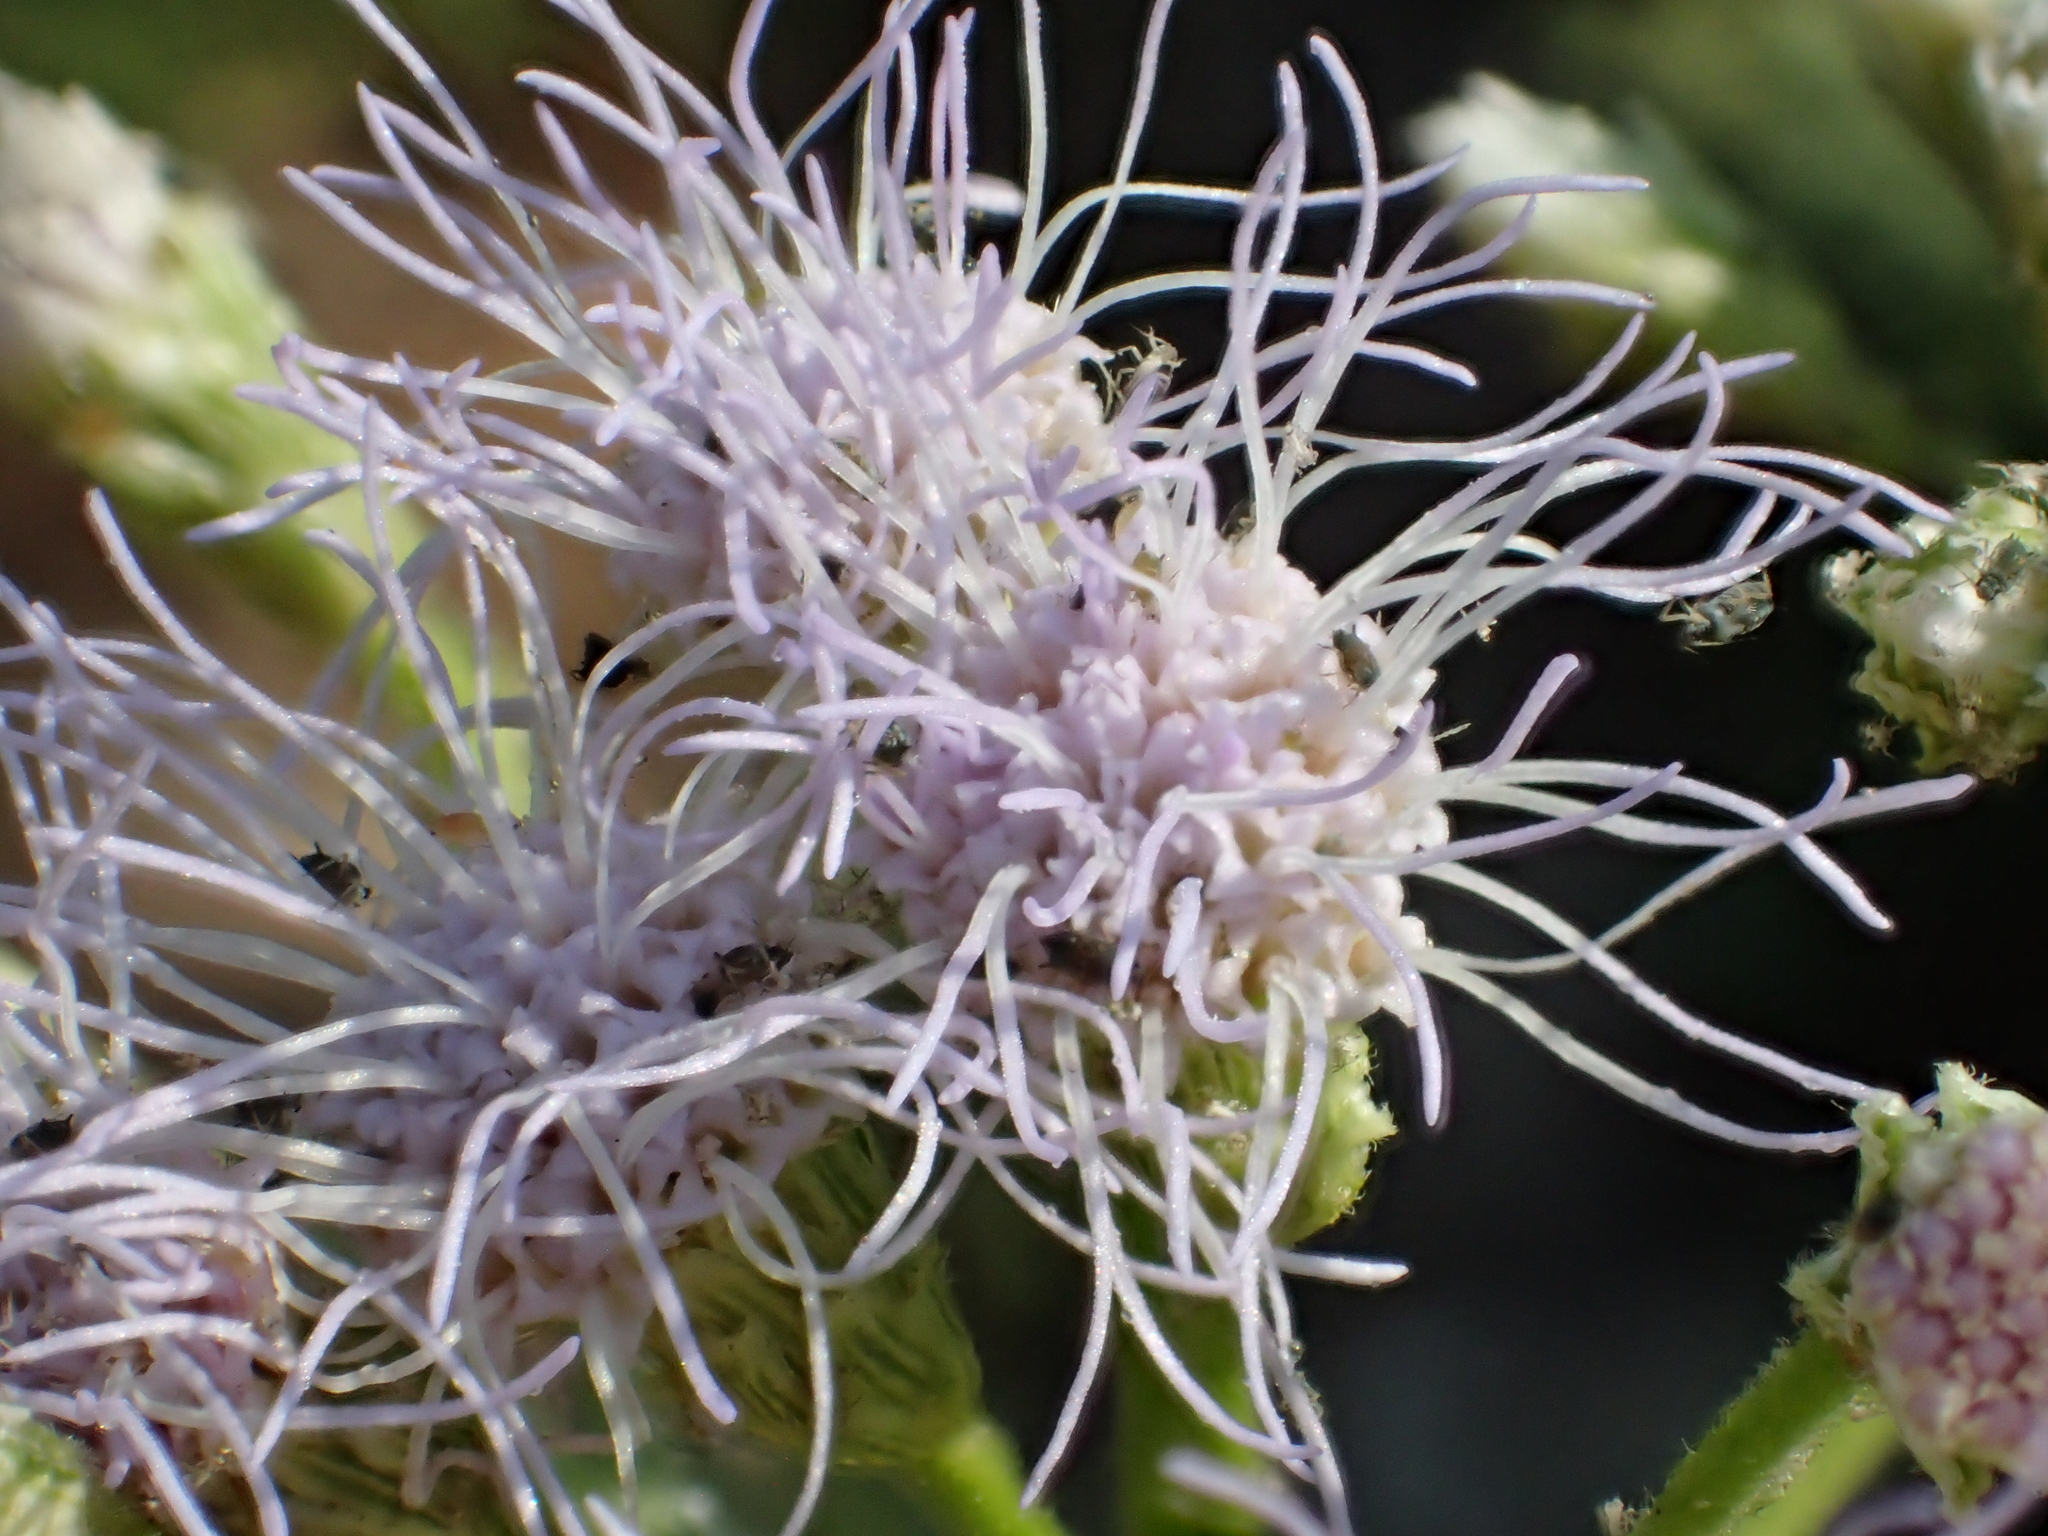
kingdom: Plantae
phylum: Tracheophyta
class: Magnoliopsida
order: Asterales
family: Asteraceae
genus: Chromolaena
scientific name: Chromolaena odorata
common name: Siamweed
